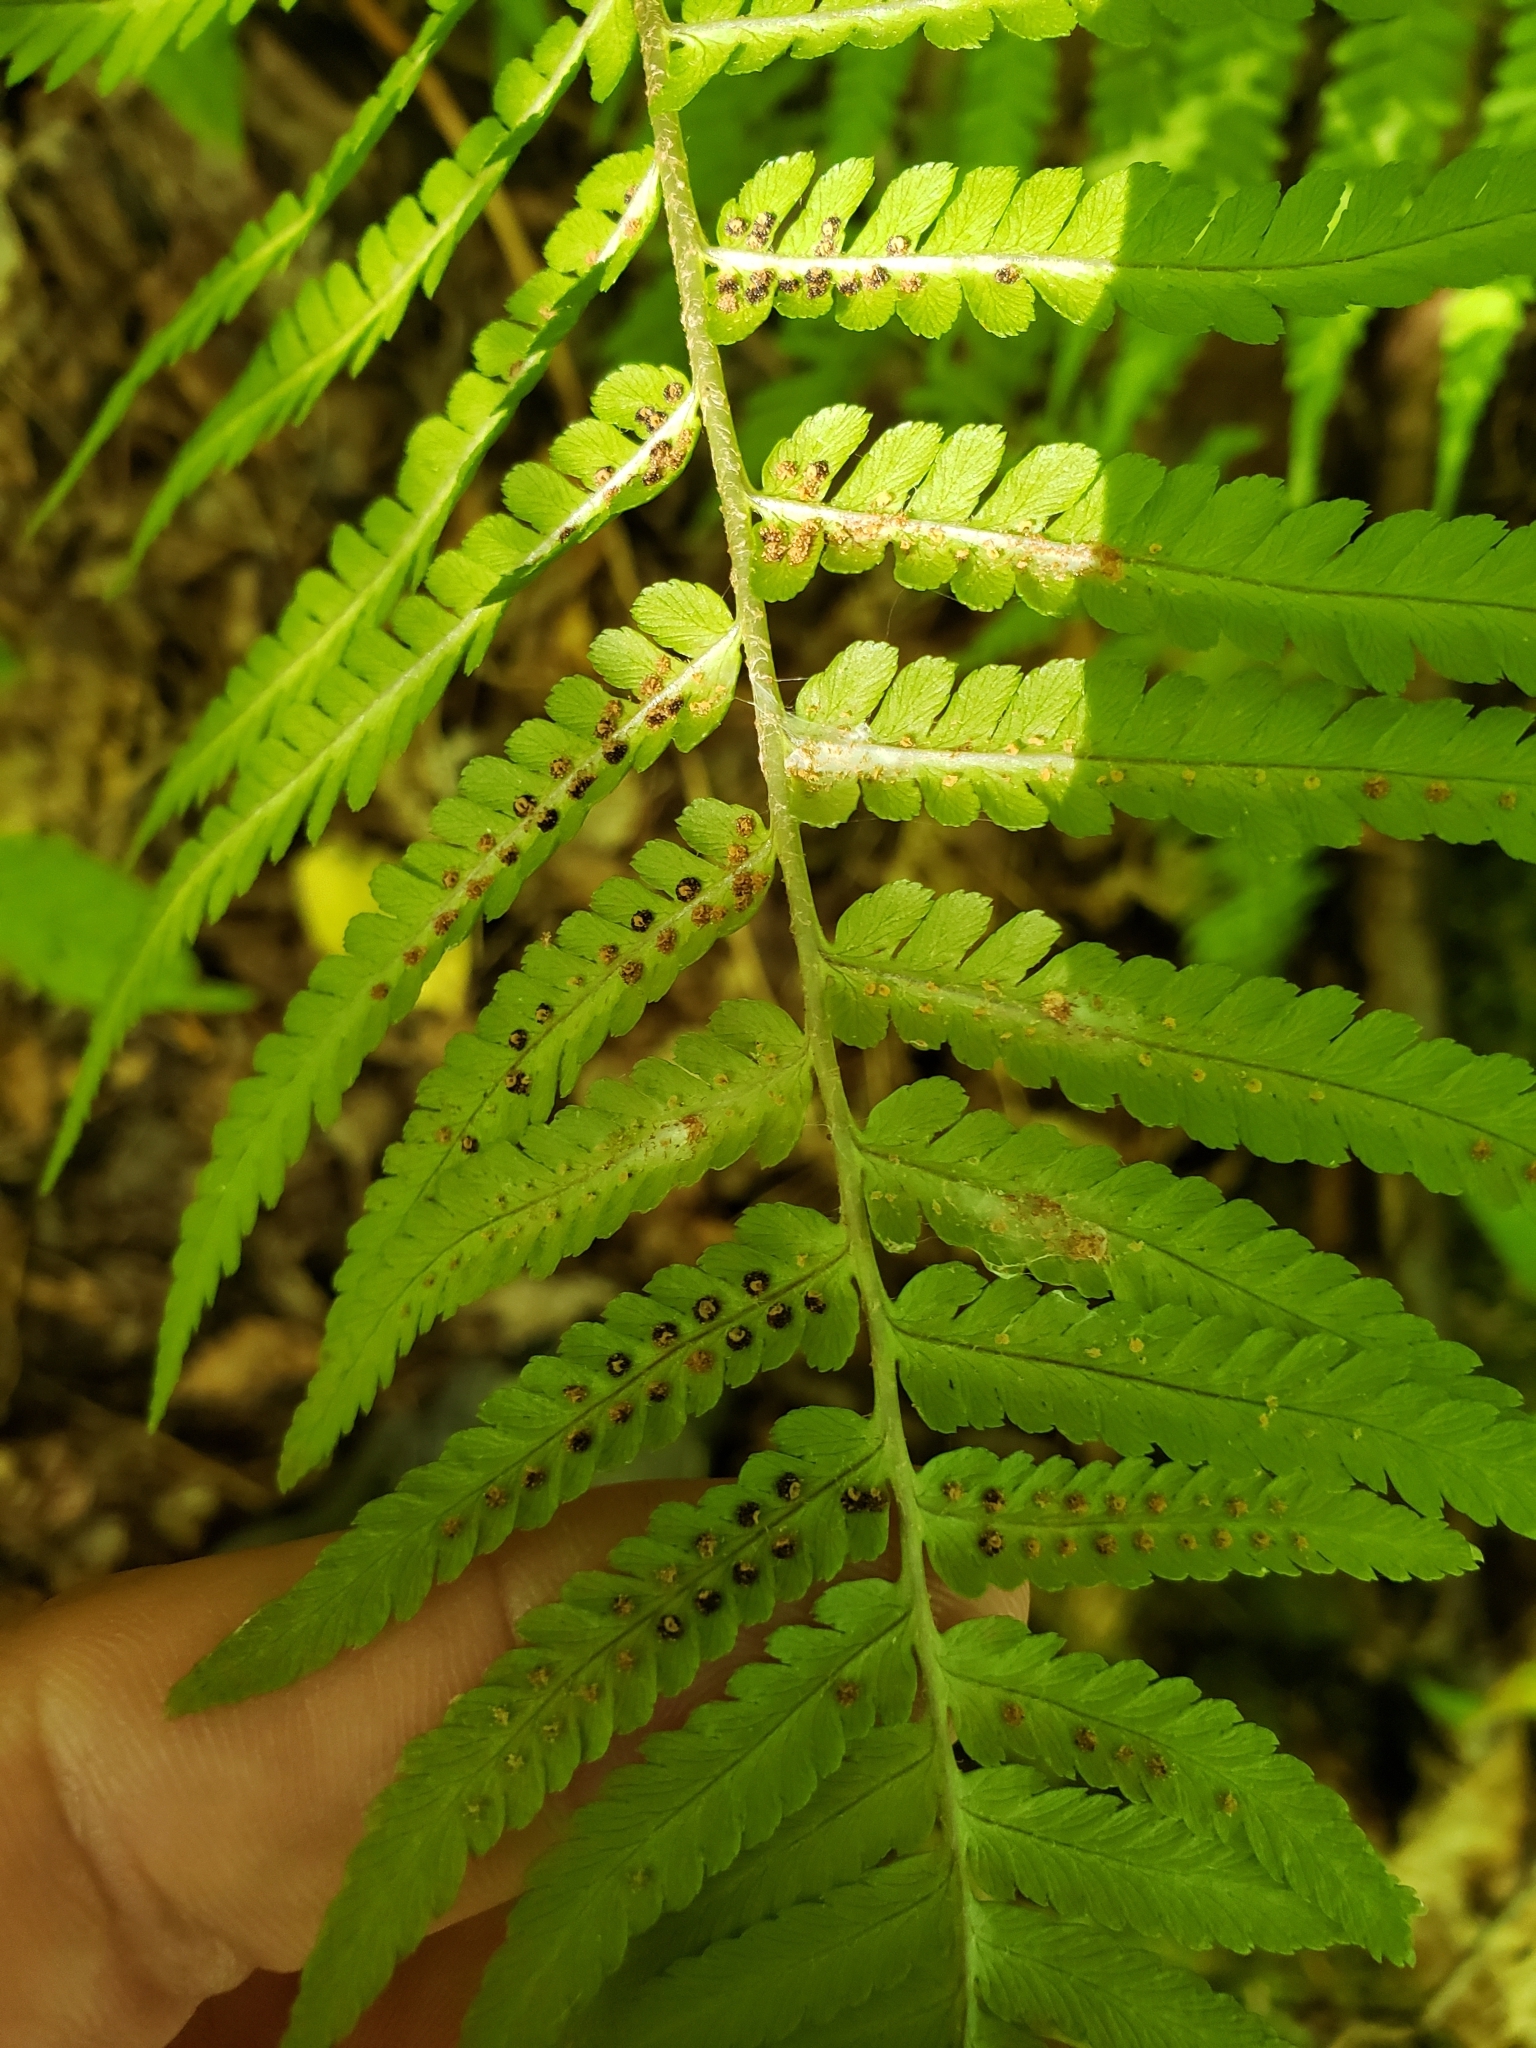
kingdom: Plantae
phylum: Tracheophyta
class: Polypodiopsida
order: Polypodiales
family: Dryopteridaceae
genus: Dryopteris
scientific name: Dryopteris filix-mas
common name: Male fern
